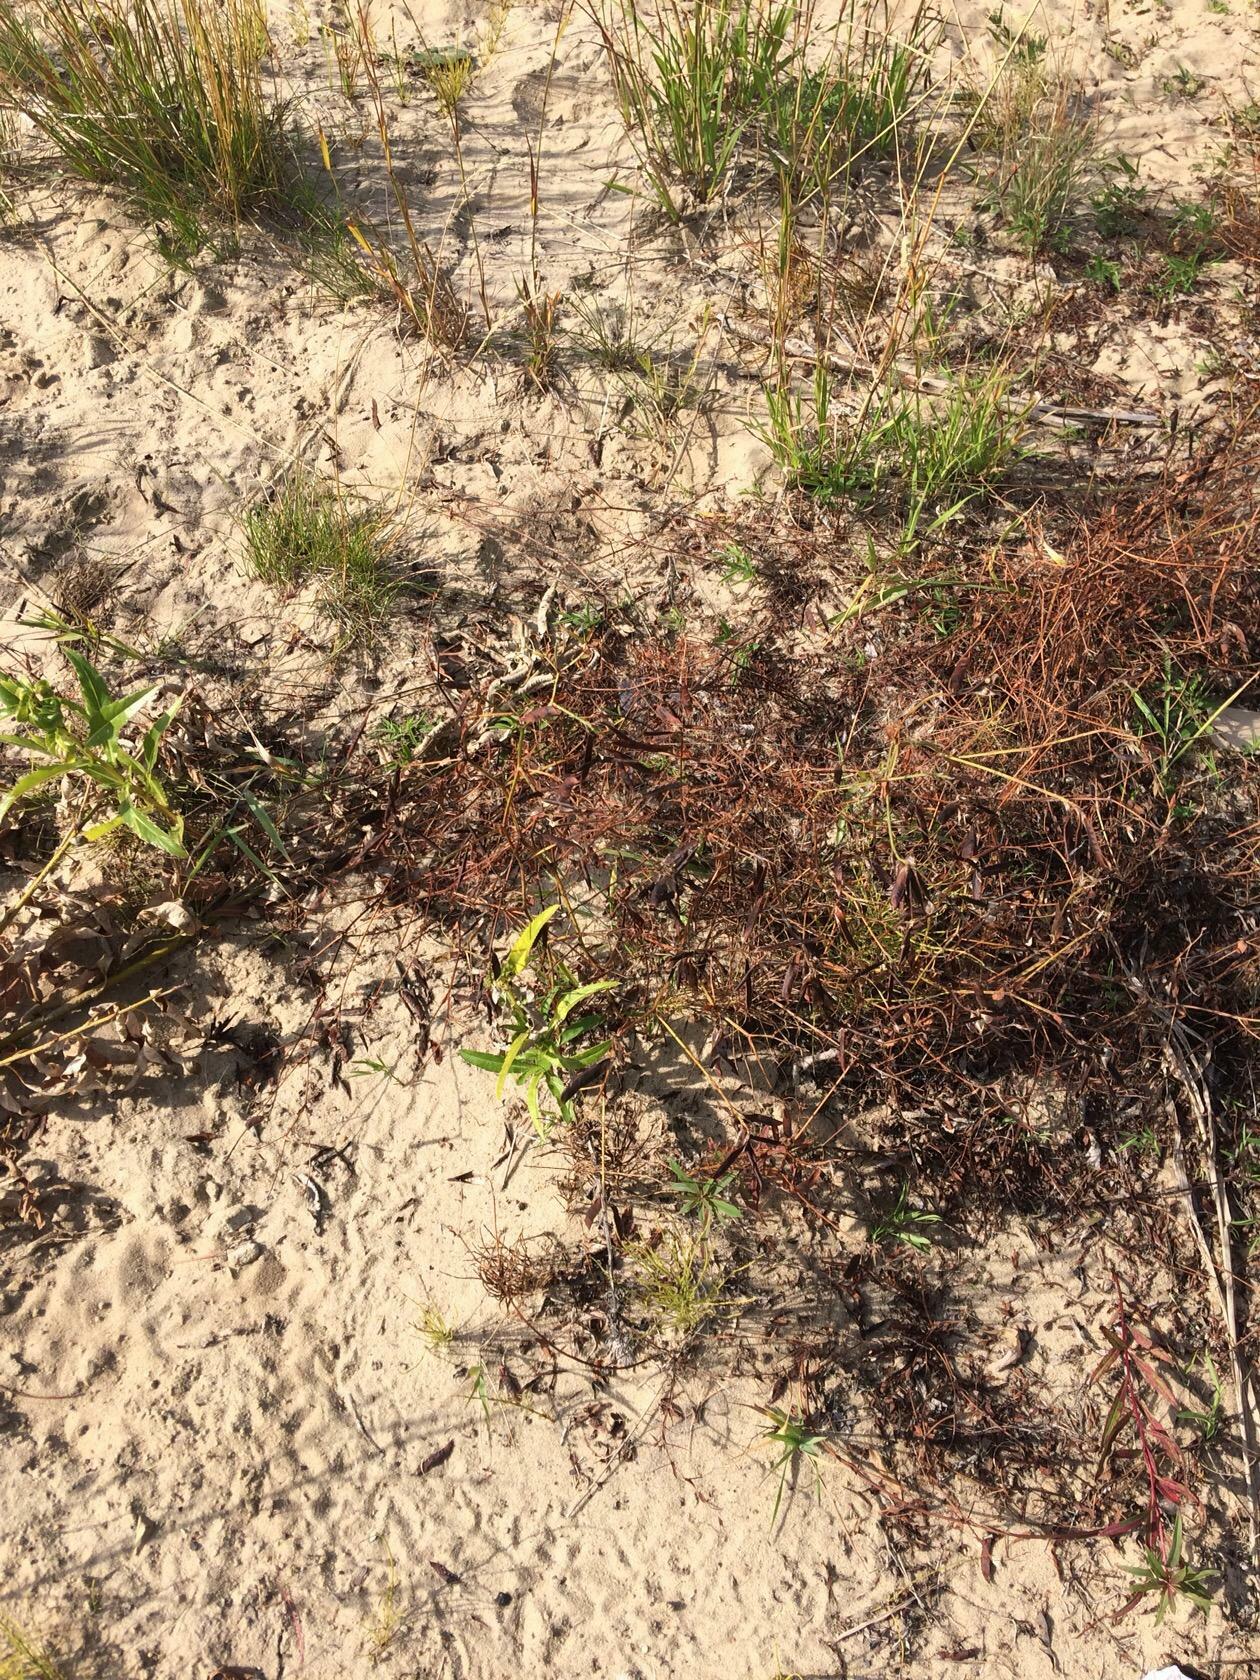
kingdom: Plantae
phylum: Tracheophyta
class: Magnoliopsida
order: Fabales
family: Fabaceae
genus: Vicia
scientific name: Vicia cracca
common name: Bird vetch
